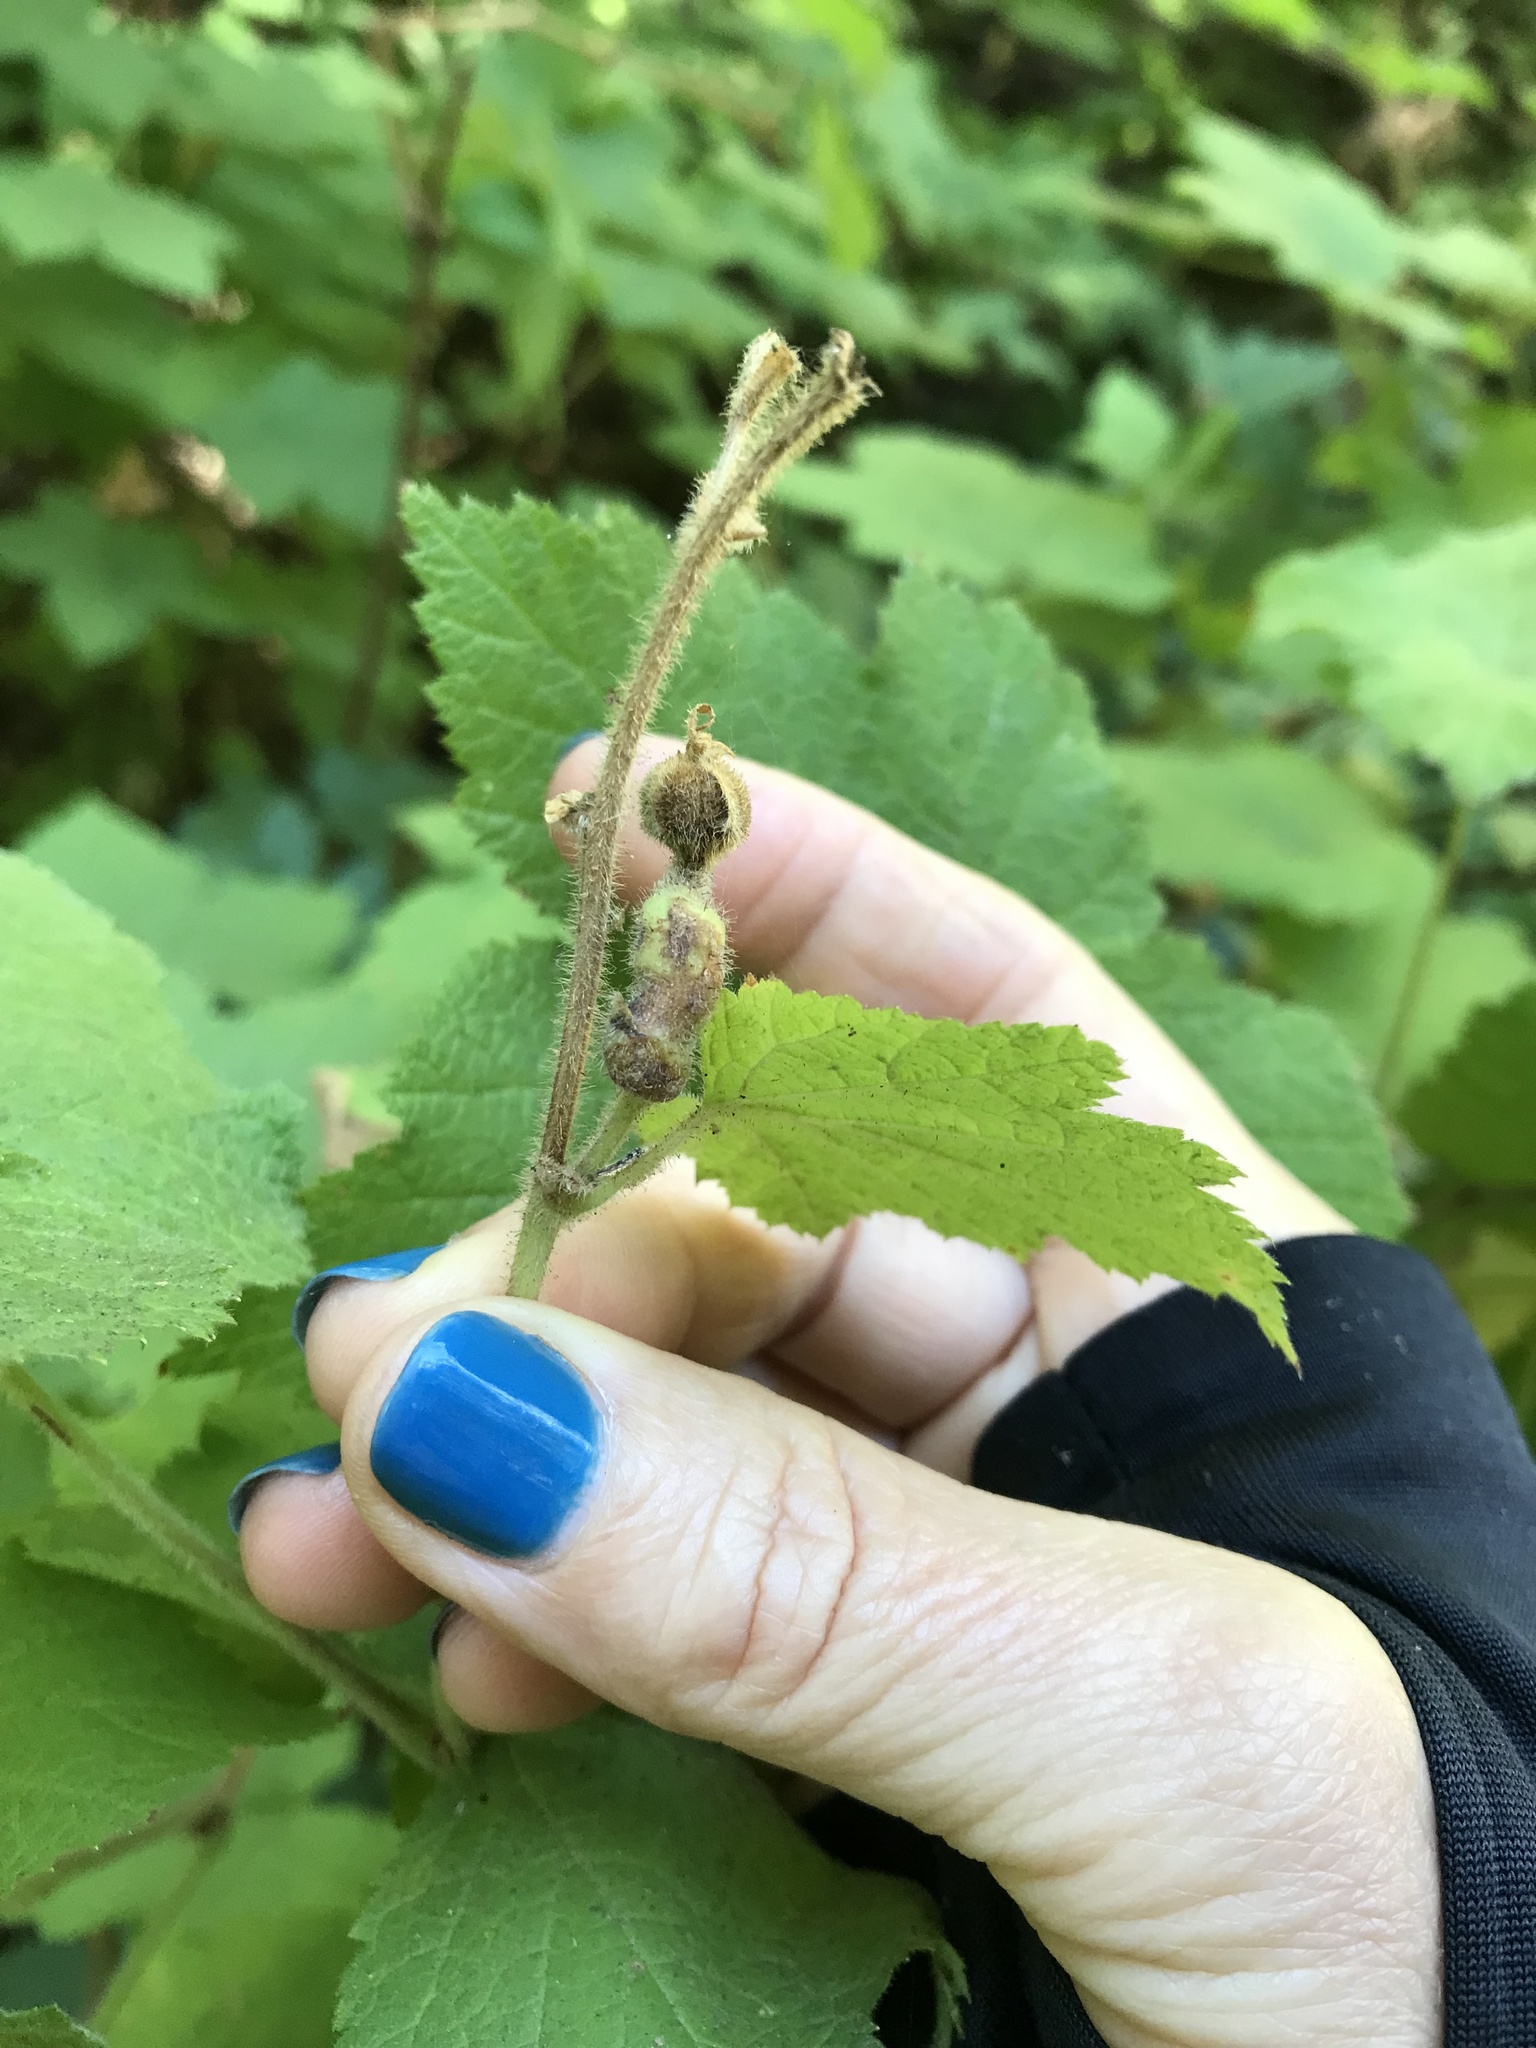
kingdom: Animalia
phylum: Arthropoda
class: Insecta
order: Hymenoptera
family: Cynipidae
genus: Diastrophus
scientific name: Diastrophus
